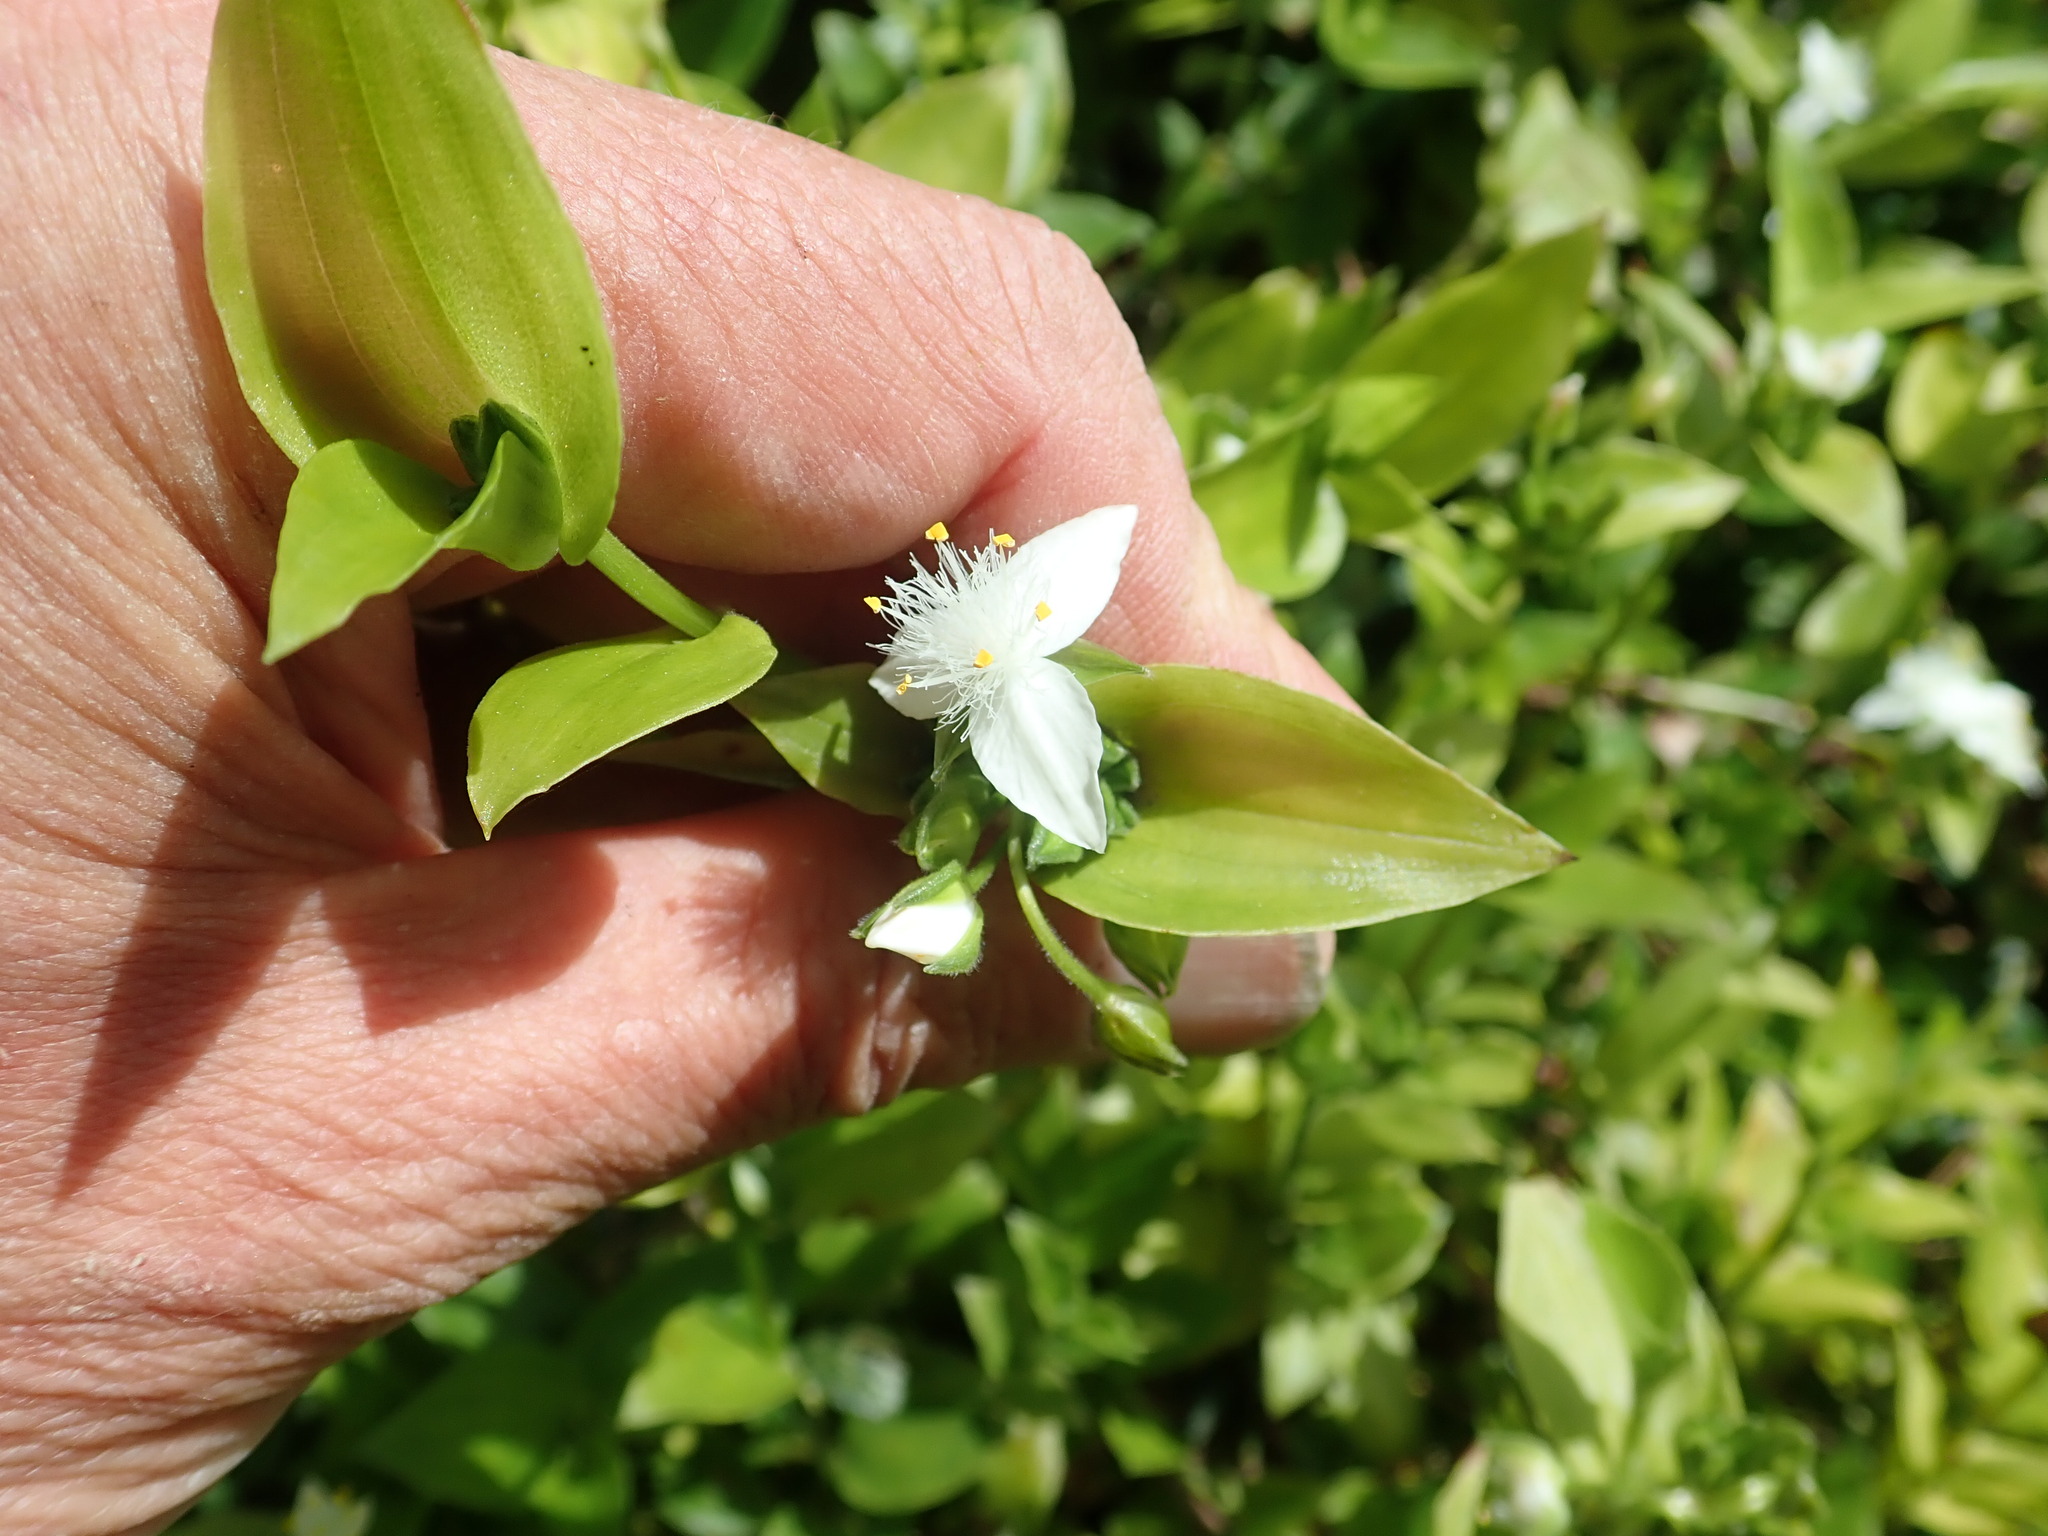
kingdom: Plantae
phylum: Tracheophyta
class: Liliopsida
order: Commelinales
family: Commelinaceae
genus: Tradescantia
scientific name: Tradescantia fluminensis
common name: Wandering-jew
